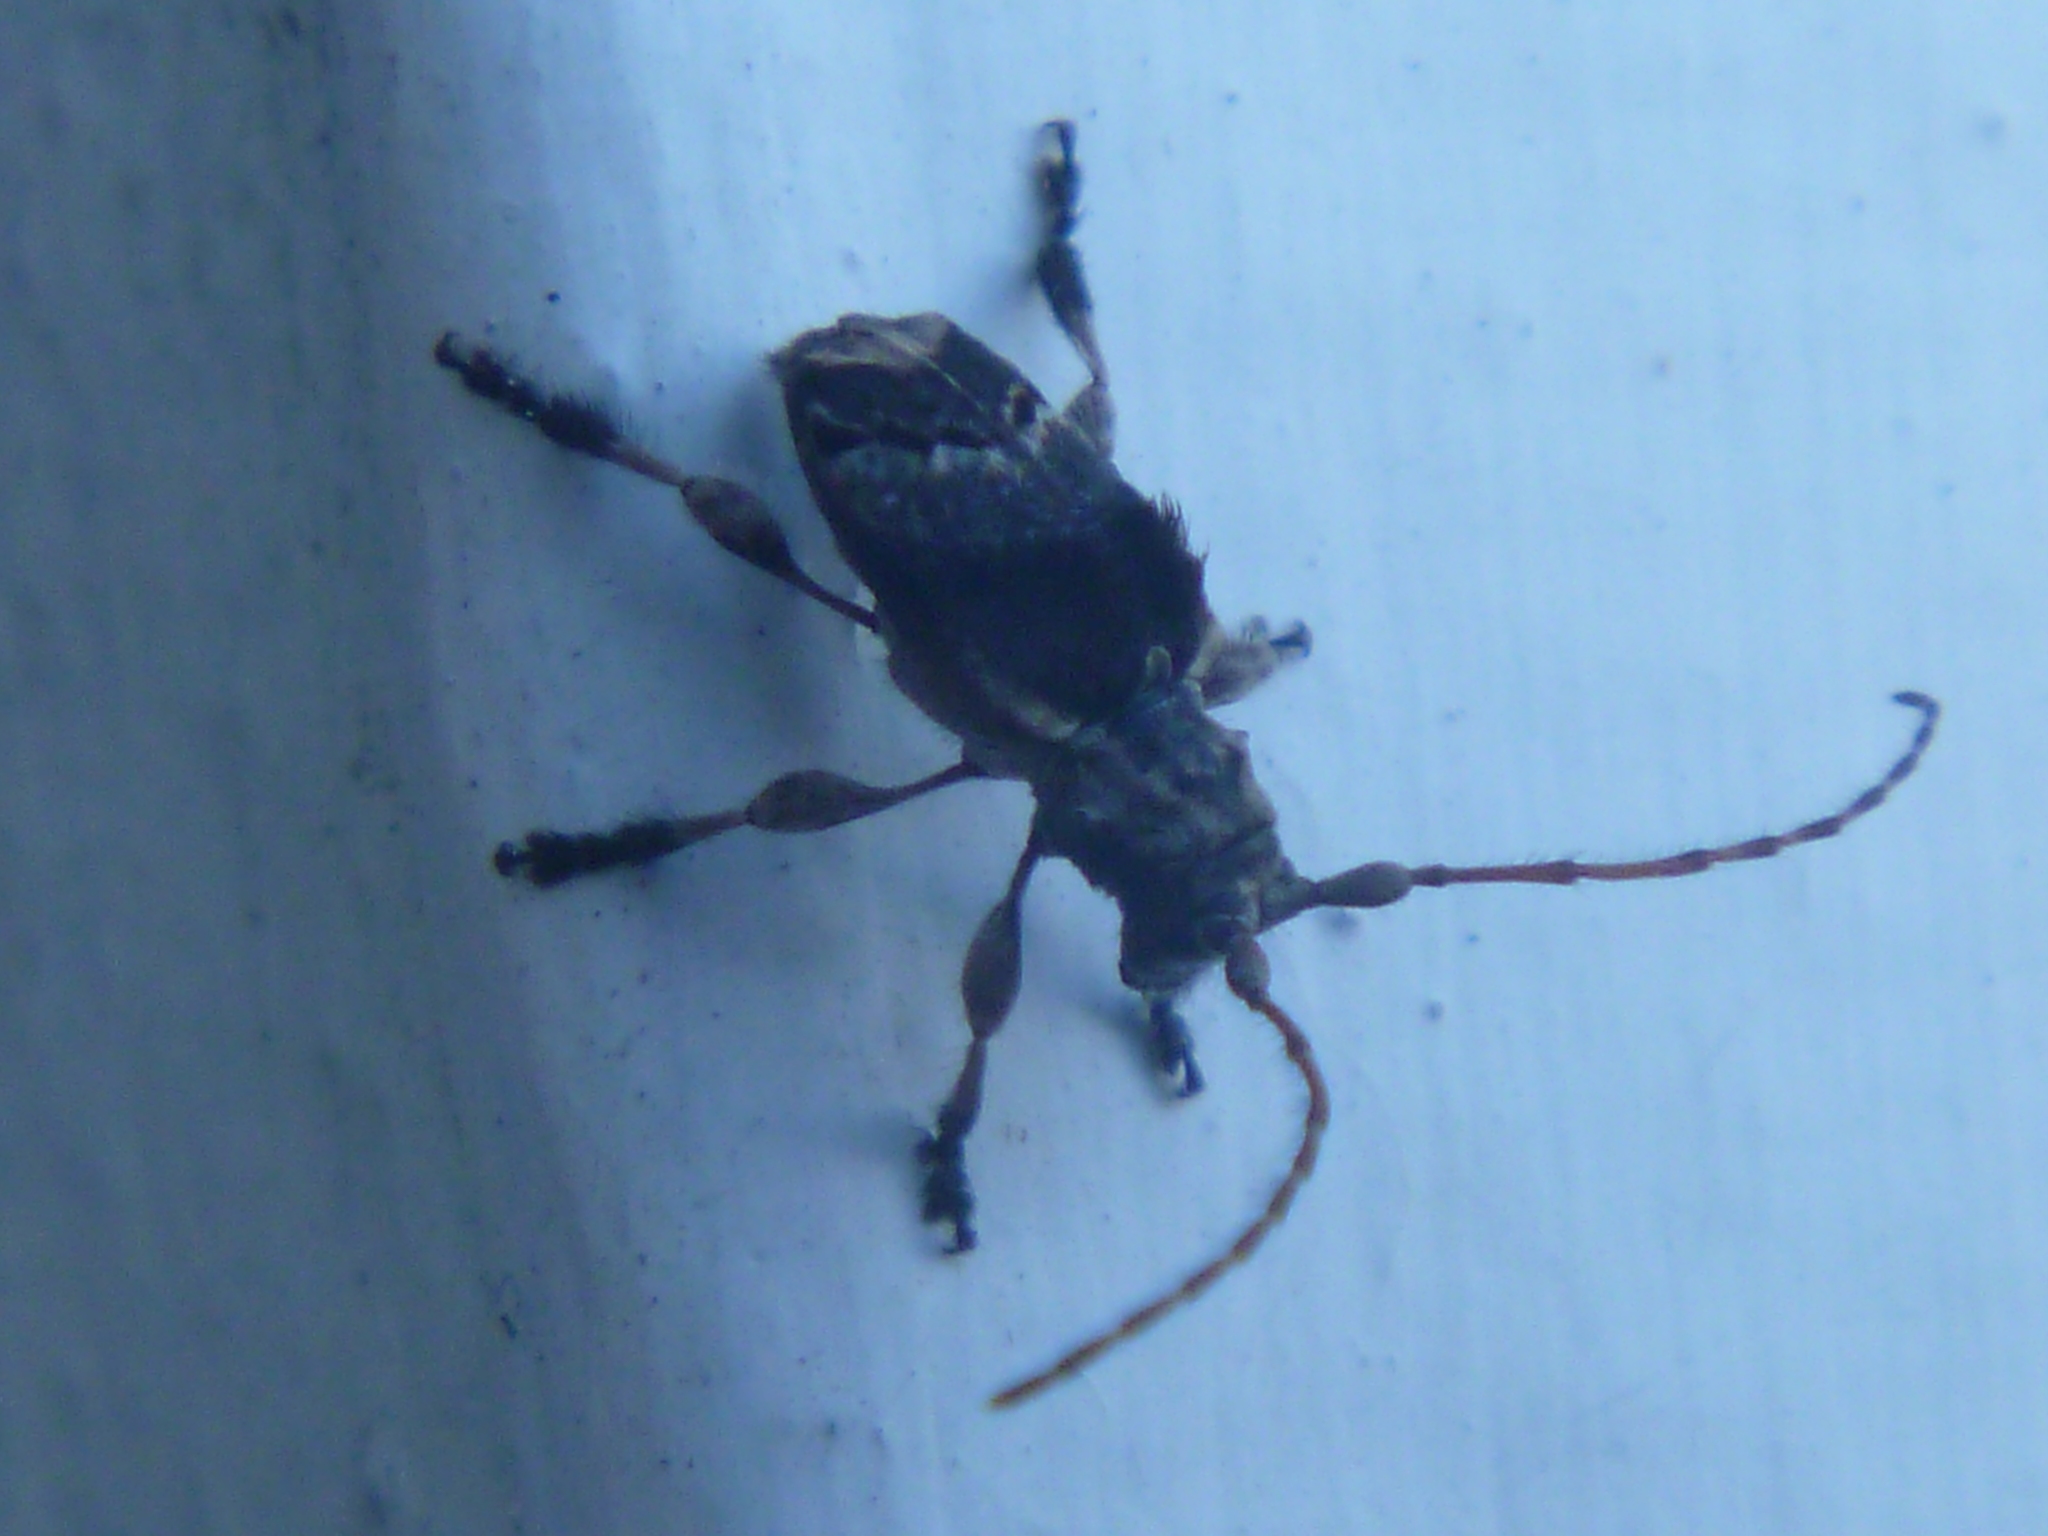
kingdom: Animalia
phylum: Arthropoda
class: Insecta
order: Coleoptera
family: Cerambycidae
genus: Hybolasius
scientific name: Hybolasius cristus
